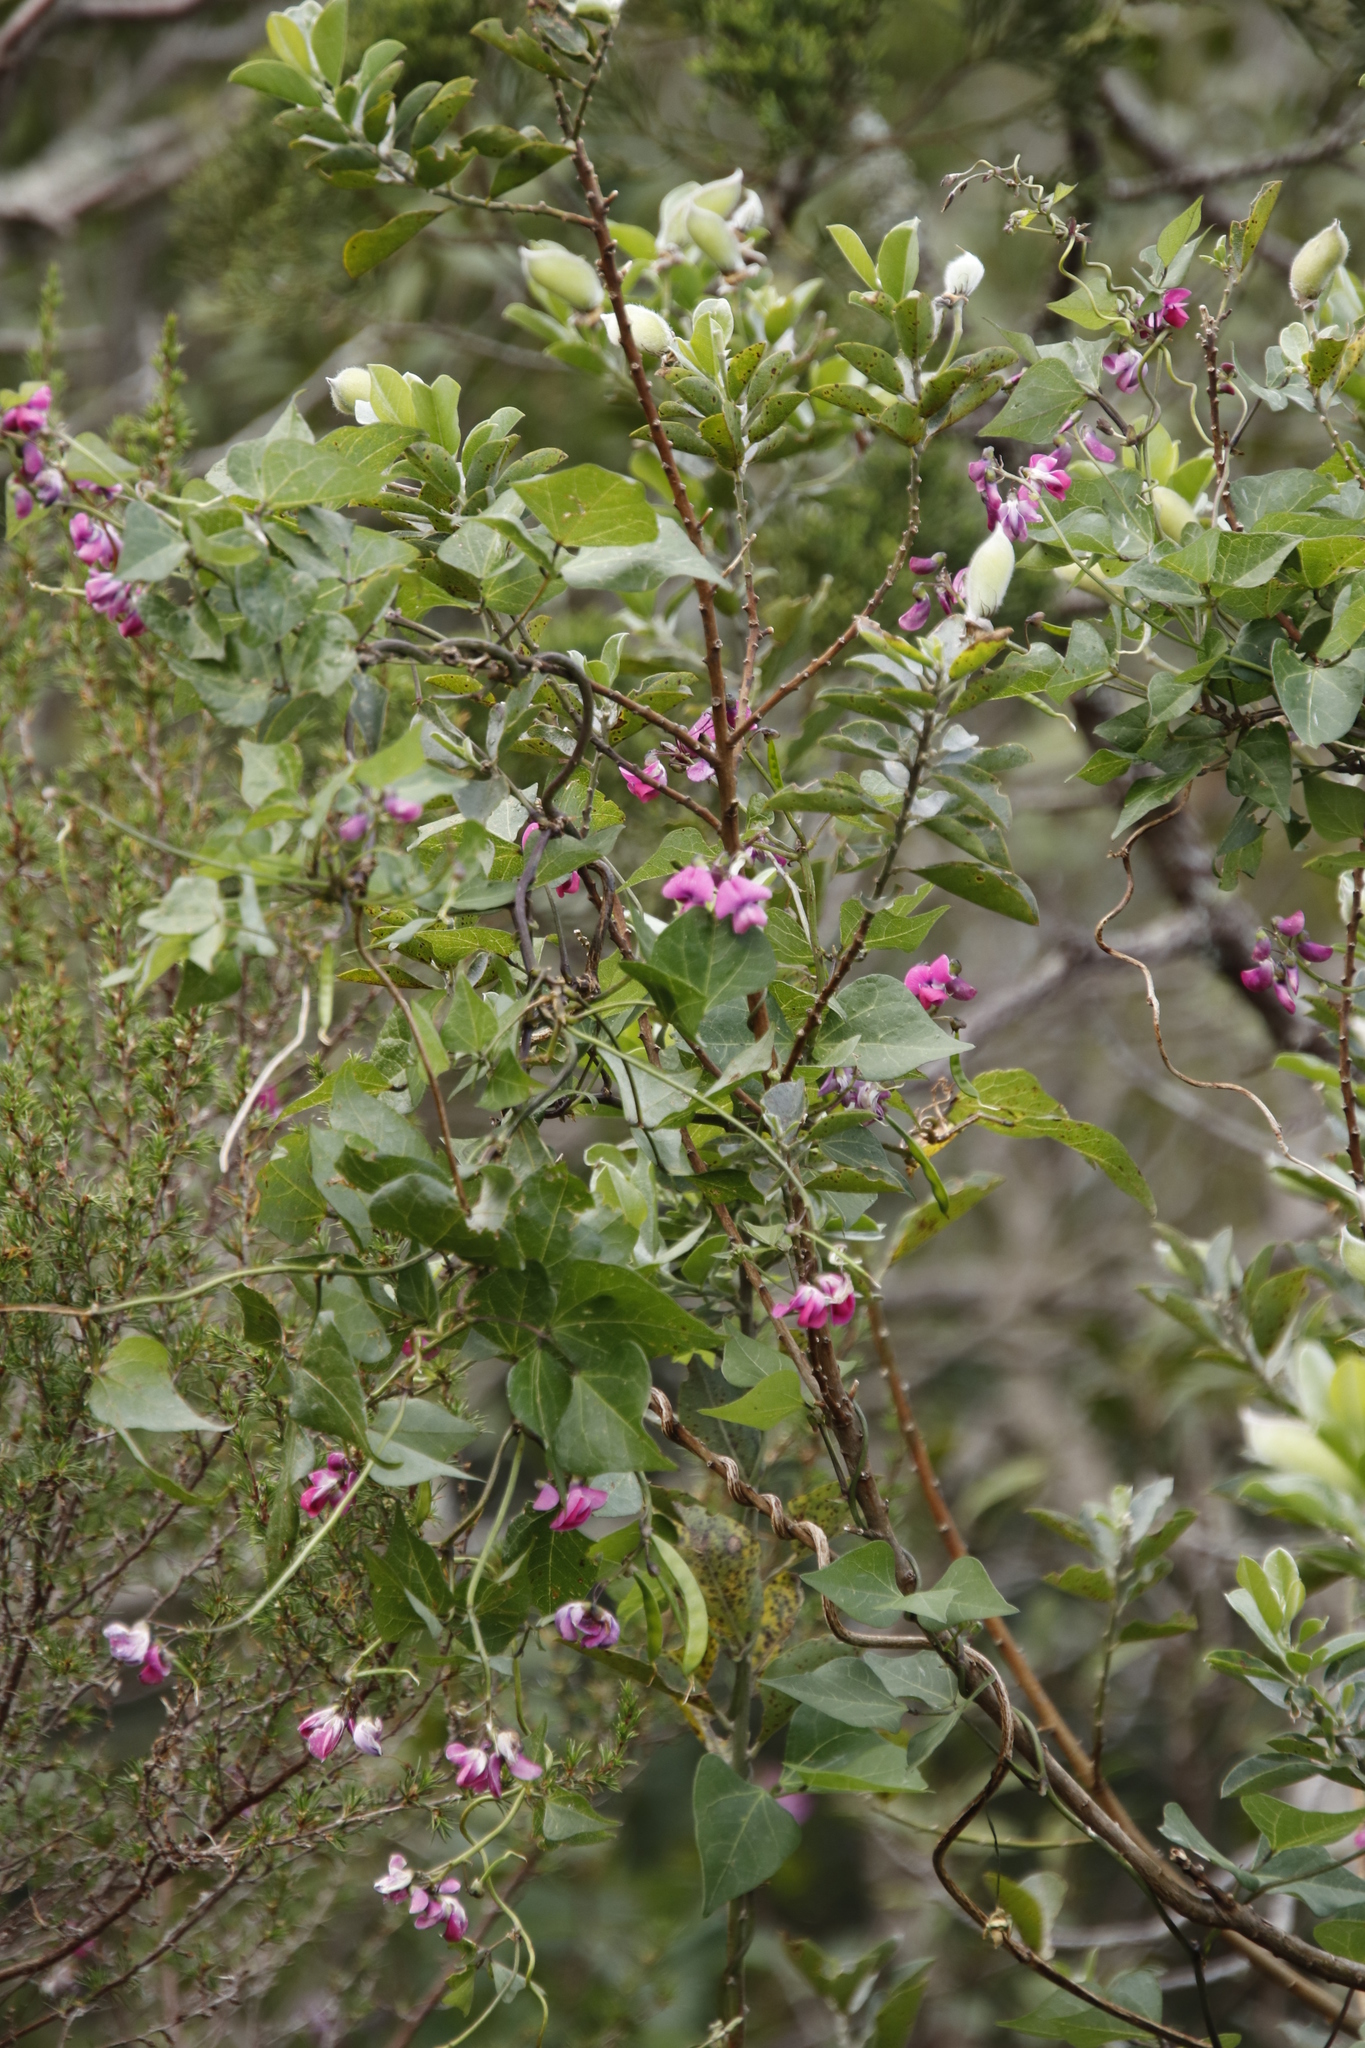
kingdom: Plantae
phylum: Tracheophyta
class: Magnoliopsida
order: Fabales
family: Fabaceae
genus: Dipogon
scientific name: Dipogon lignosus
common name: Okie bean
